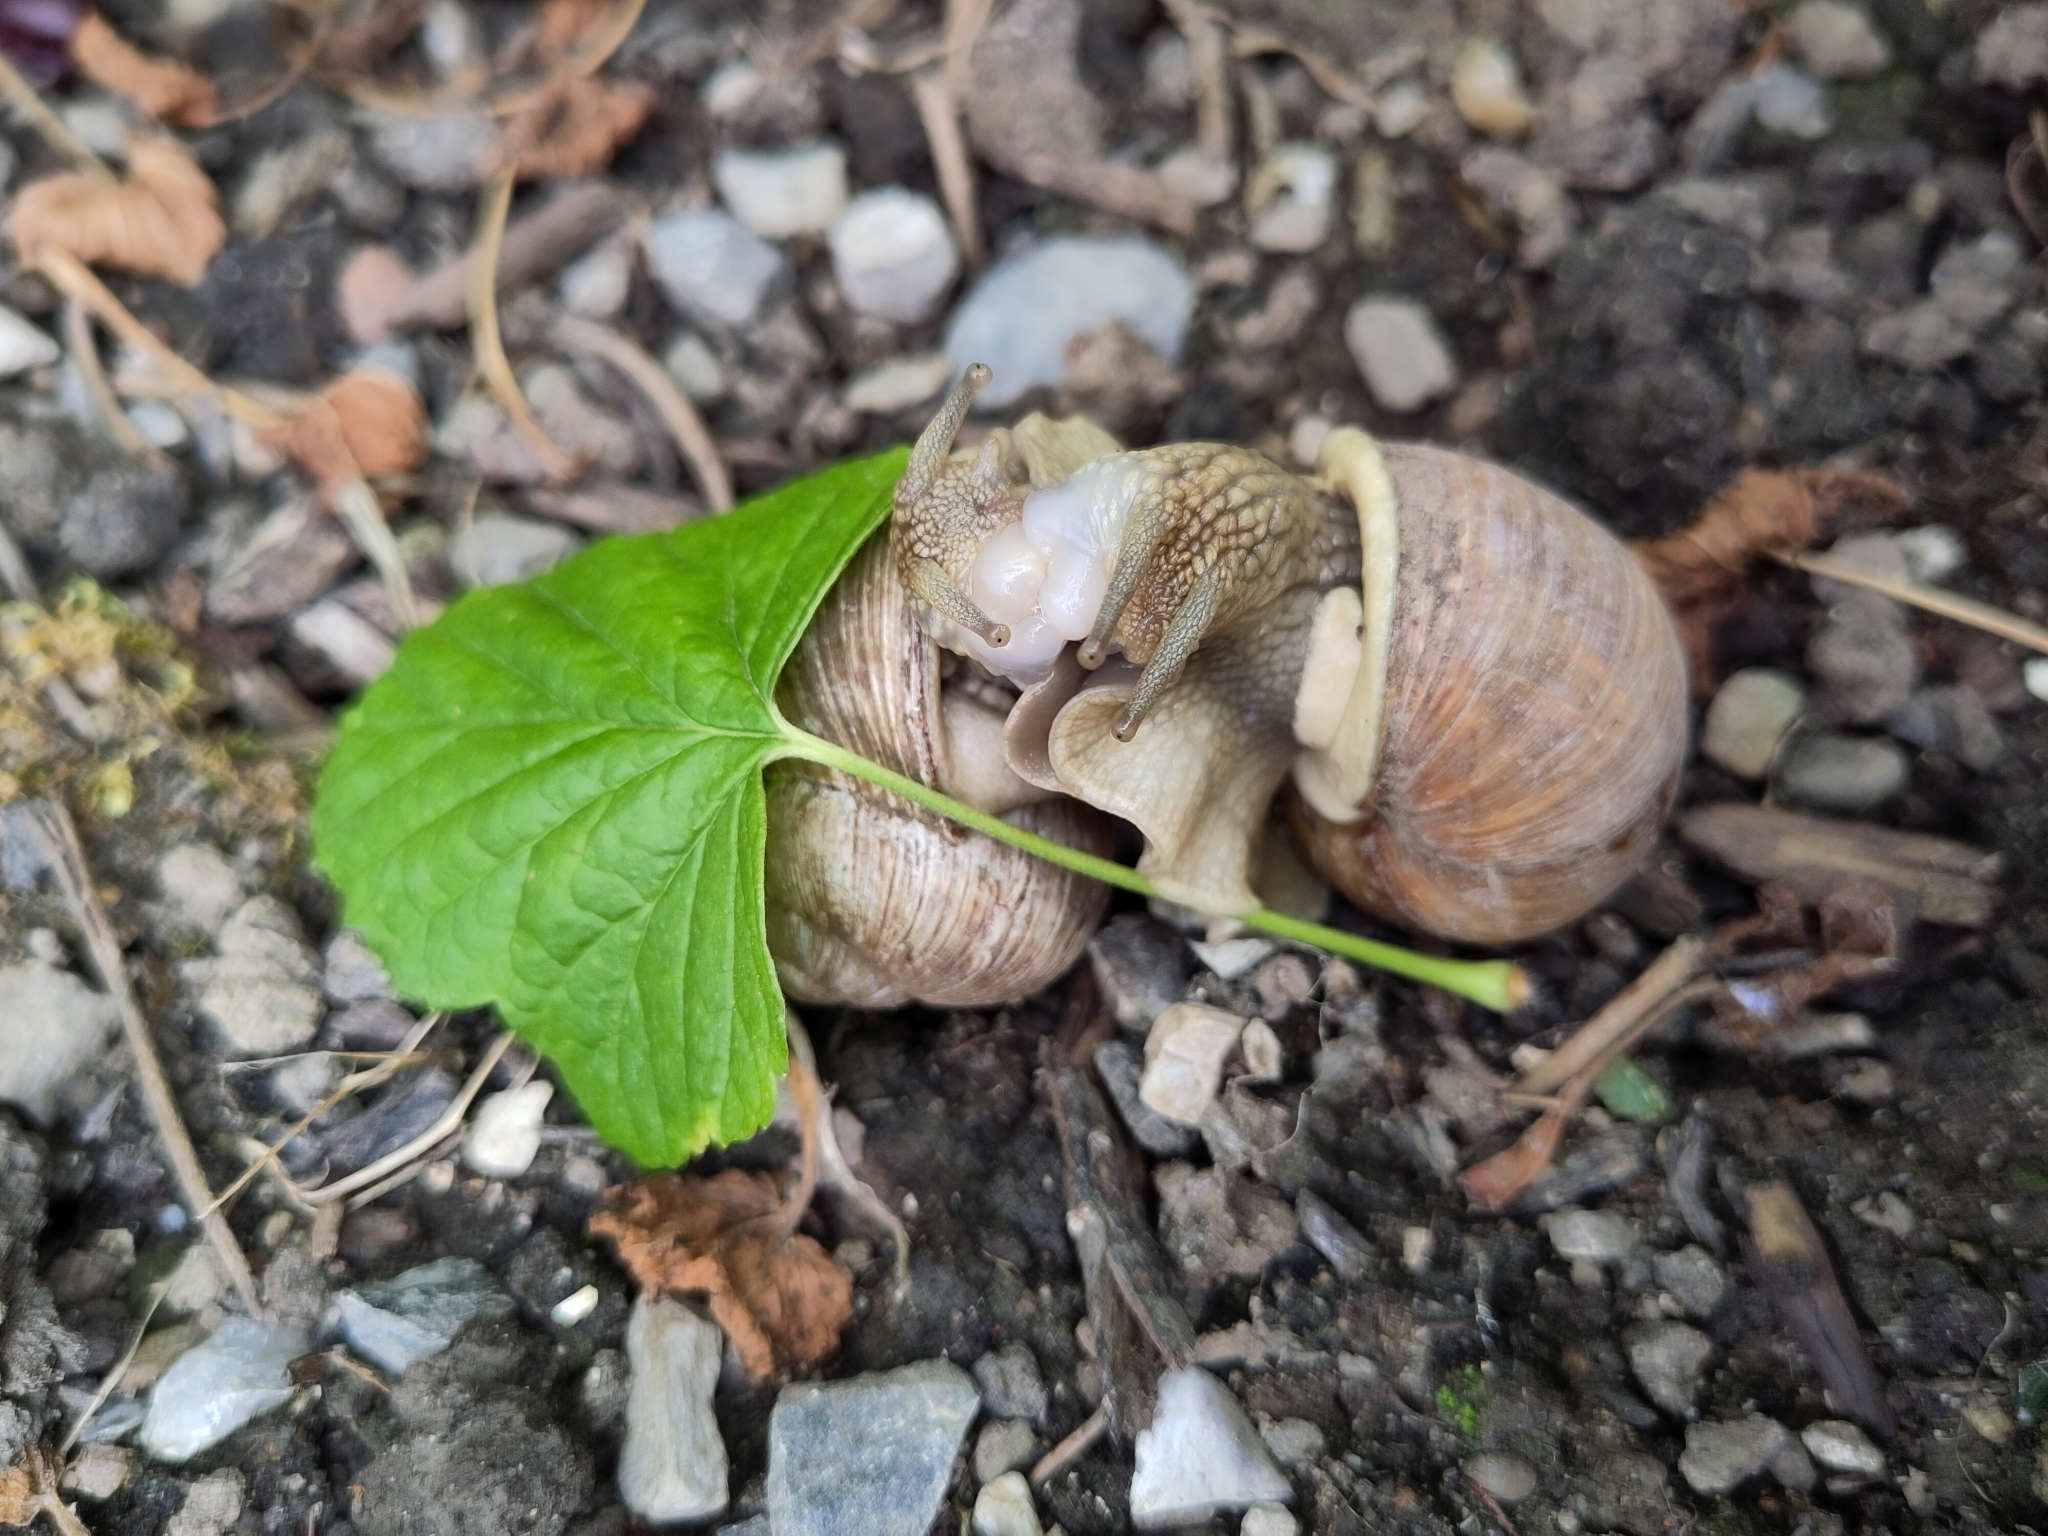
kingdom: Animalia
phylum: Mollusca
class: Gastropoda
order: Stylommatophora
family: Helicidae
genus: Helix
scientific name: Helix pomatia
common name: Roman snail
